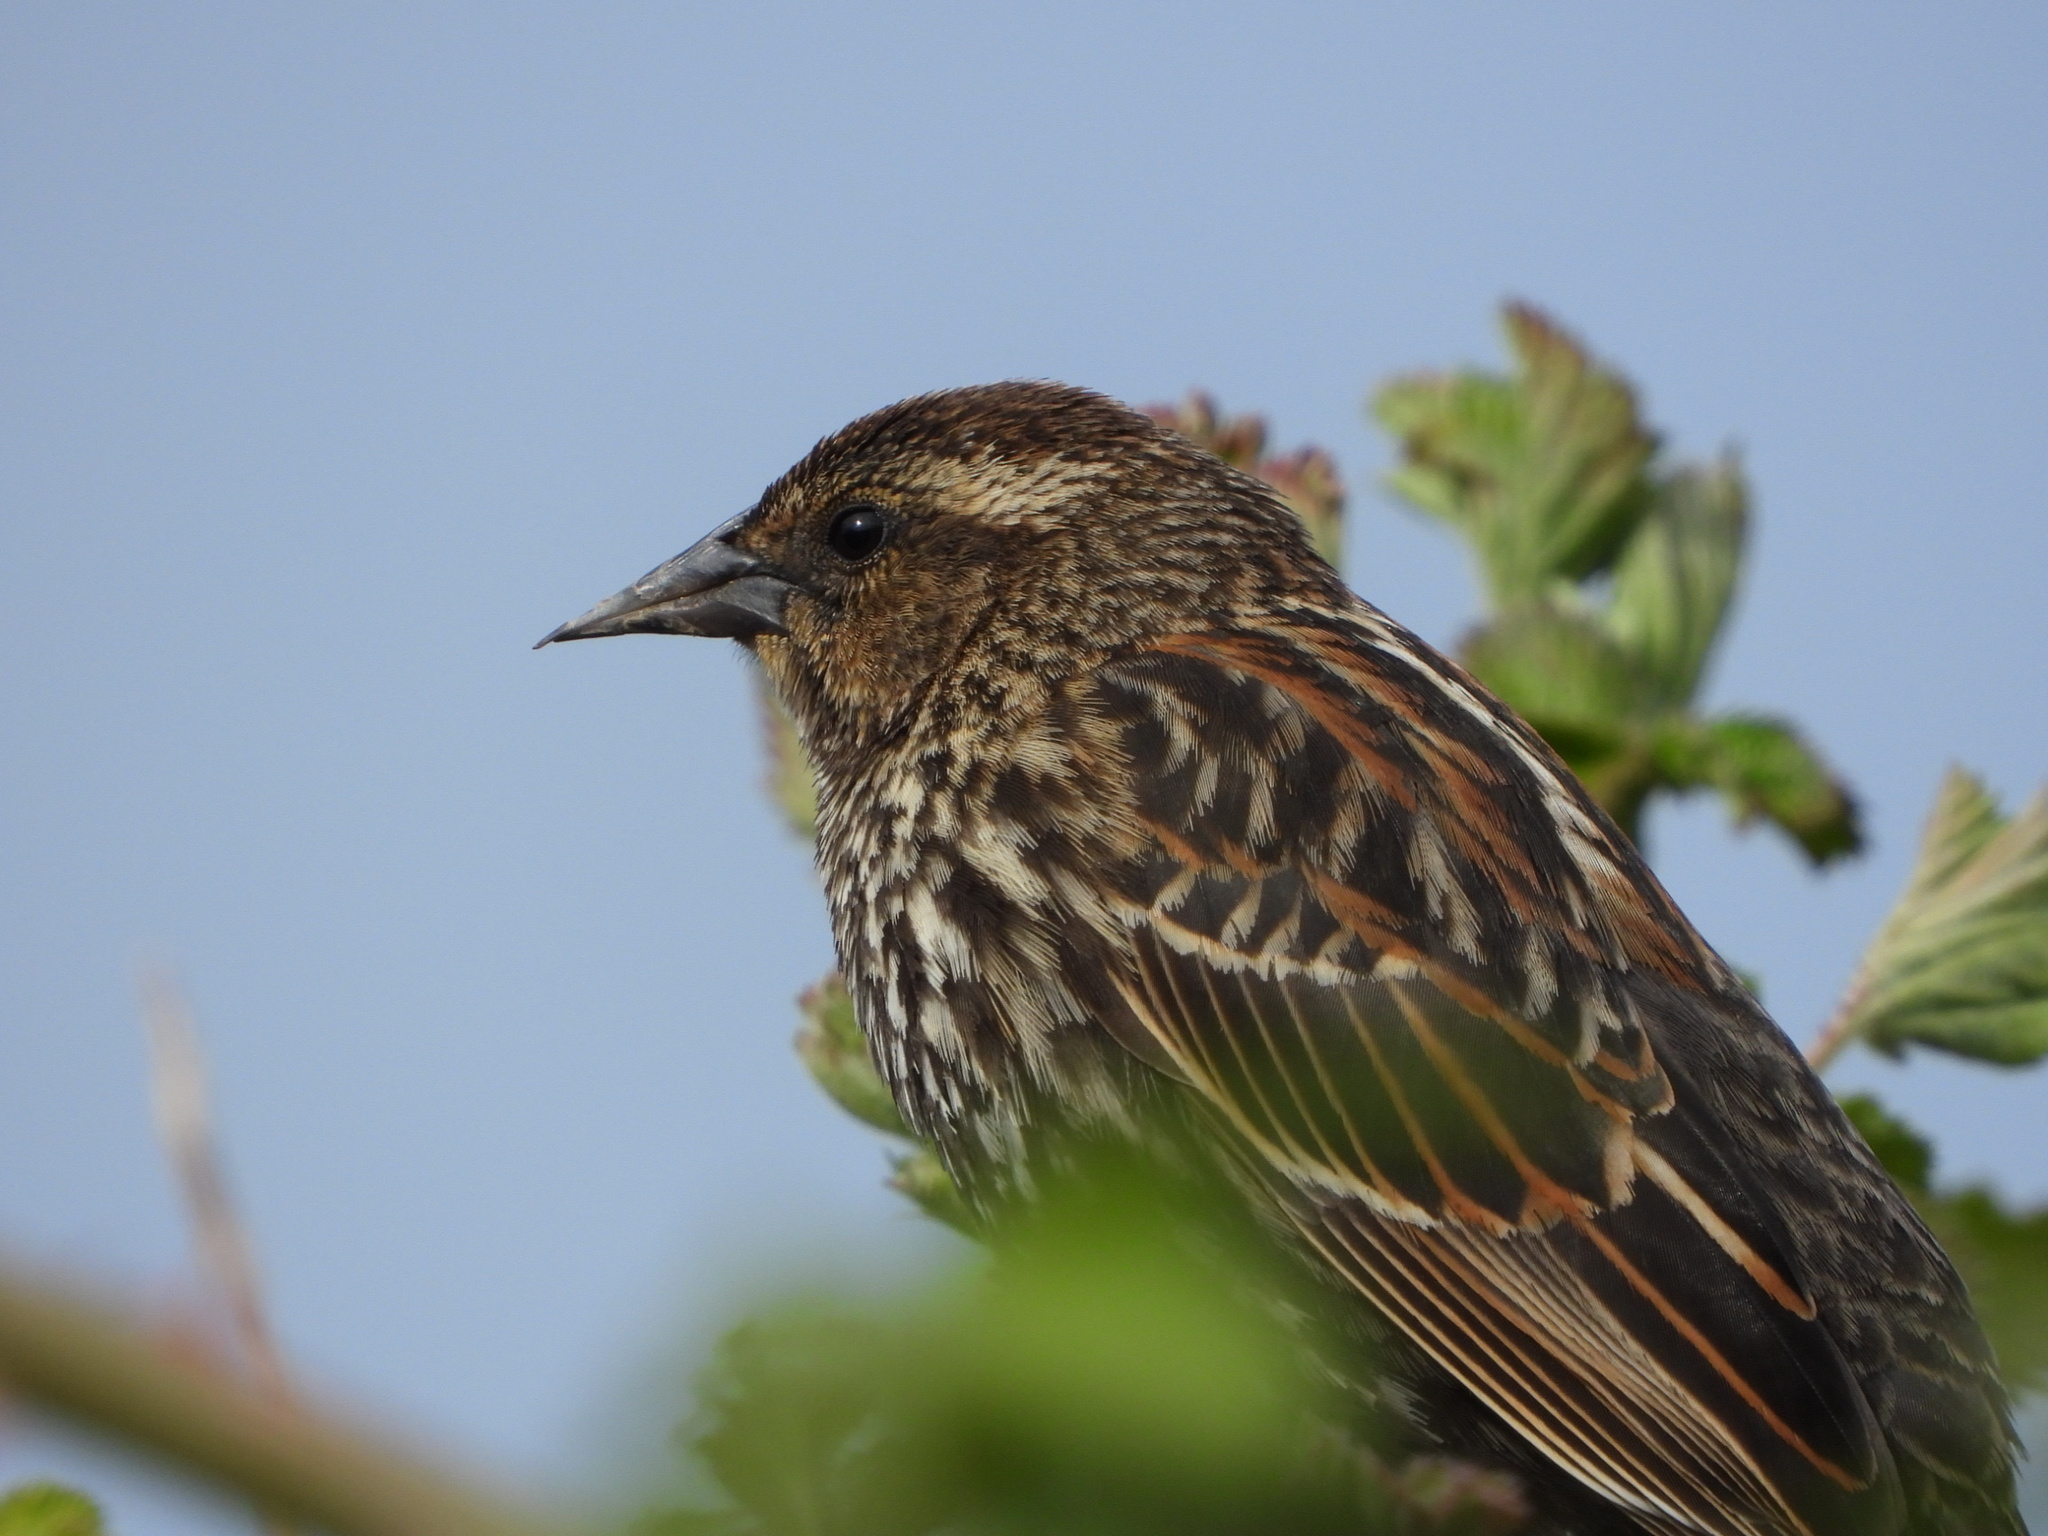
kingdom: Animalia
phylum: Chordata
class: Aves
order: Passeriformes
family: Icteridae
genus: Agelaius
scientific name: Agelaius phoeniceus
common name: Red-winged blackbird
